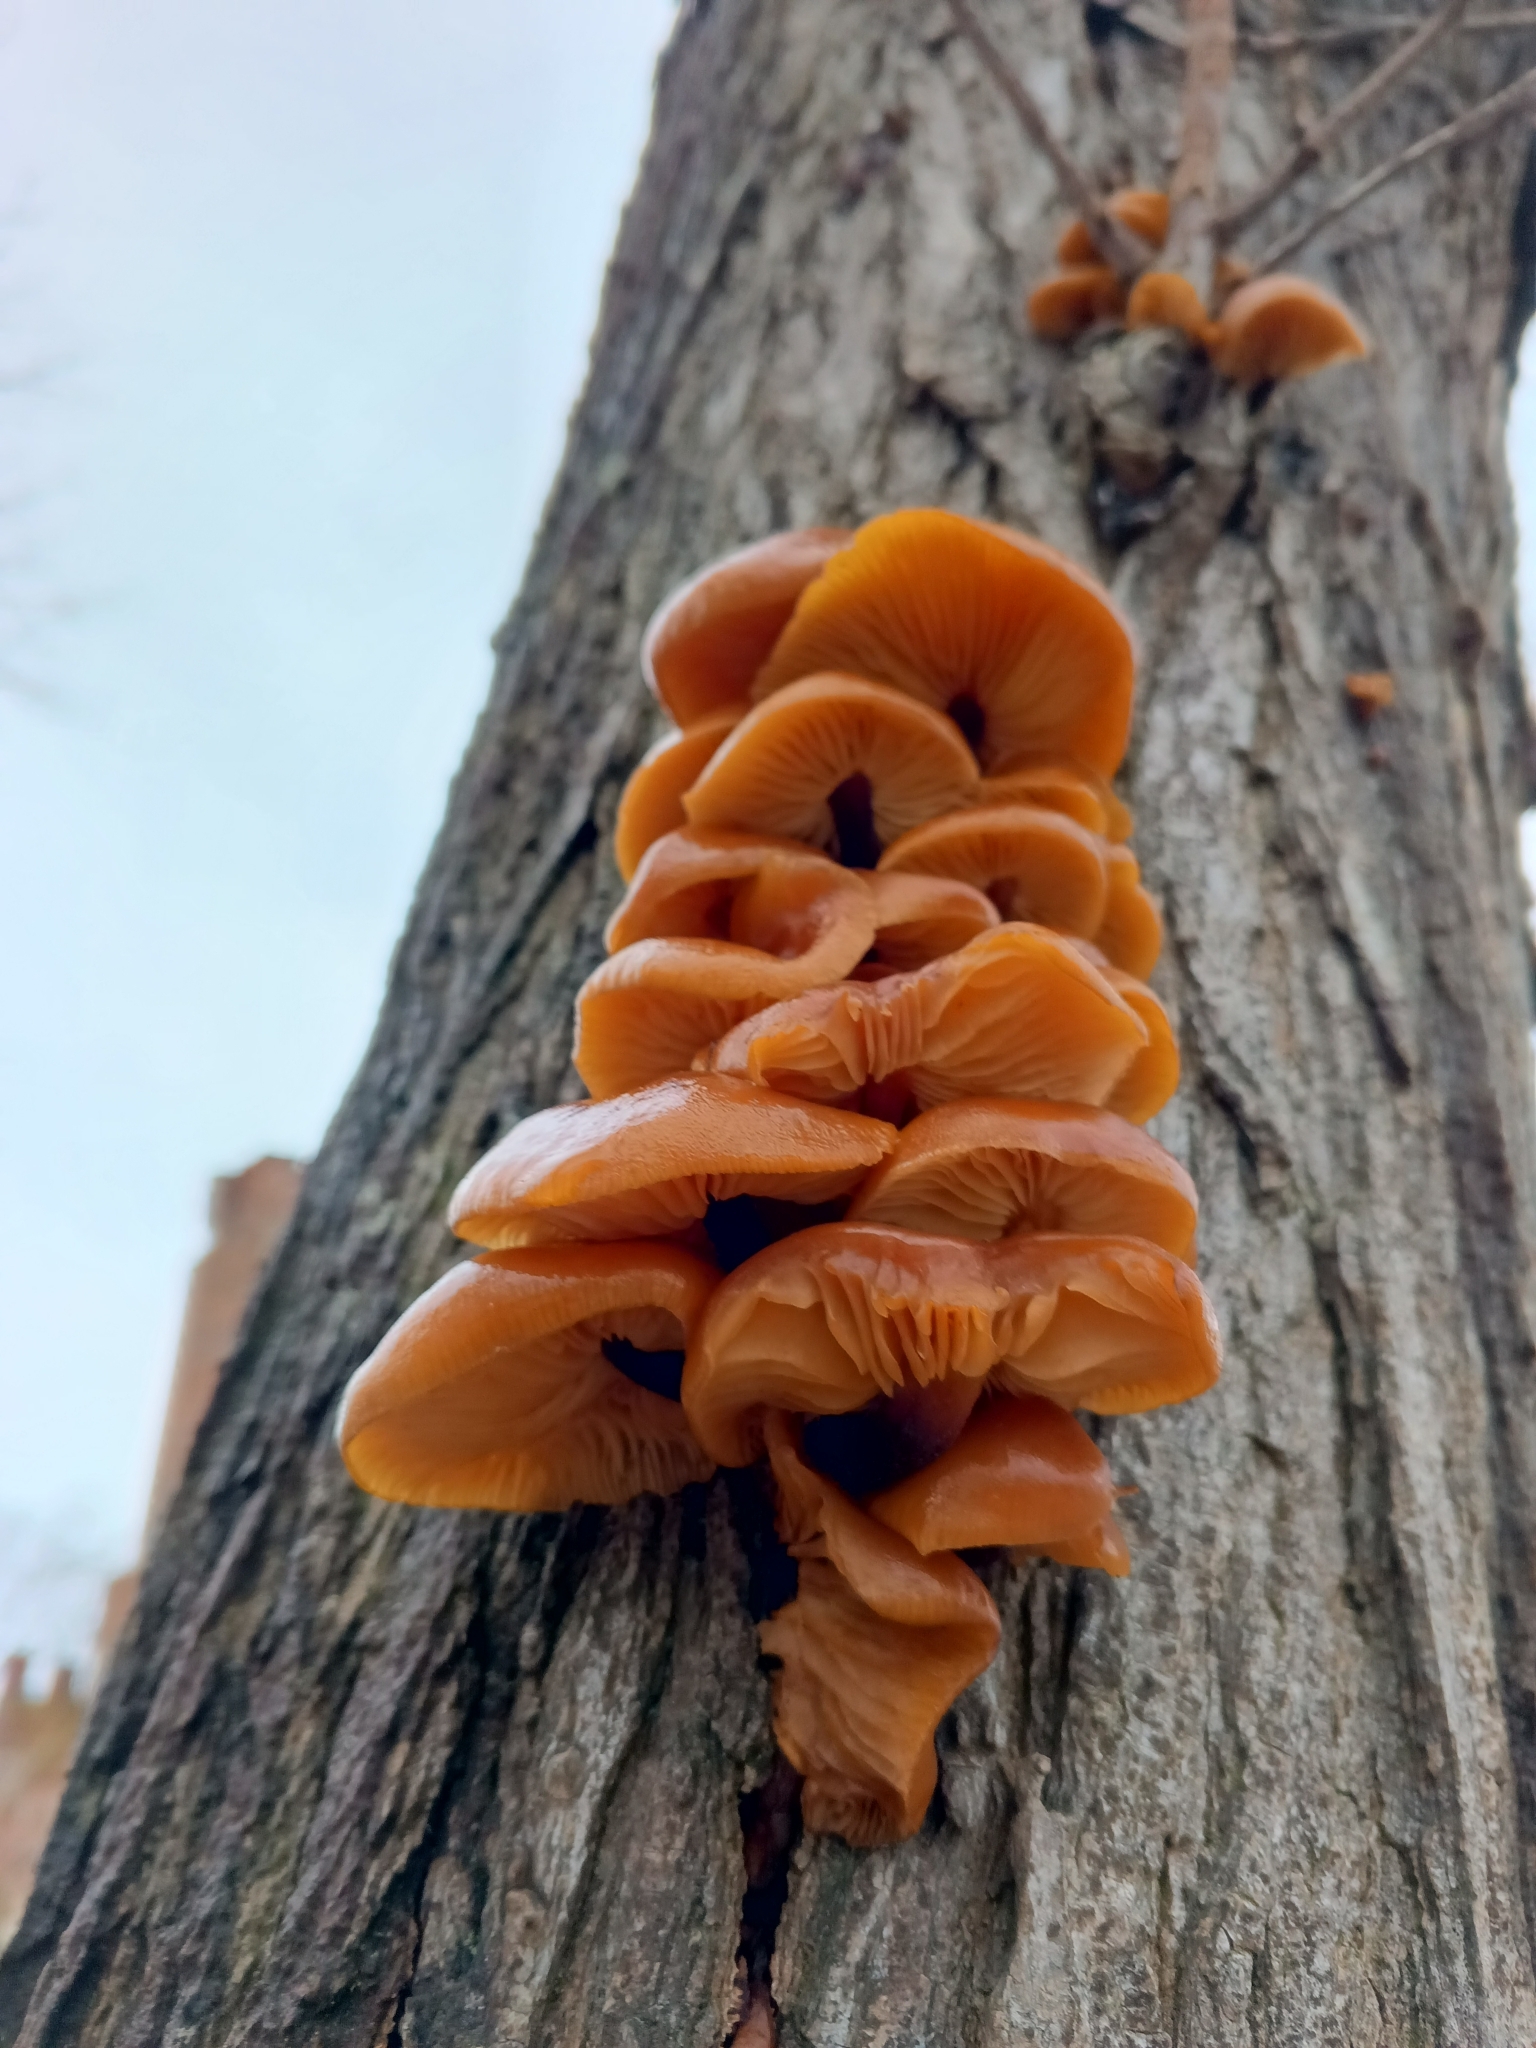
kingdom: Fungi
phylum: Basidiomycota
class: Agaricomycetes
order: Agaricales
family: Physalacriaceae
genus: Flammulina
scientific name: Flammulina
